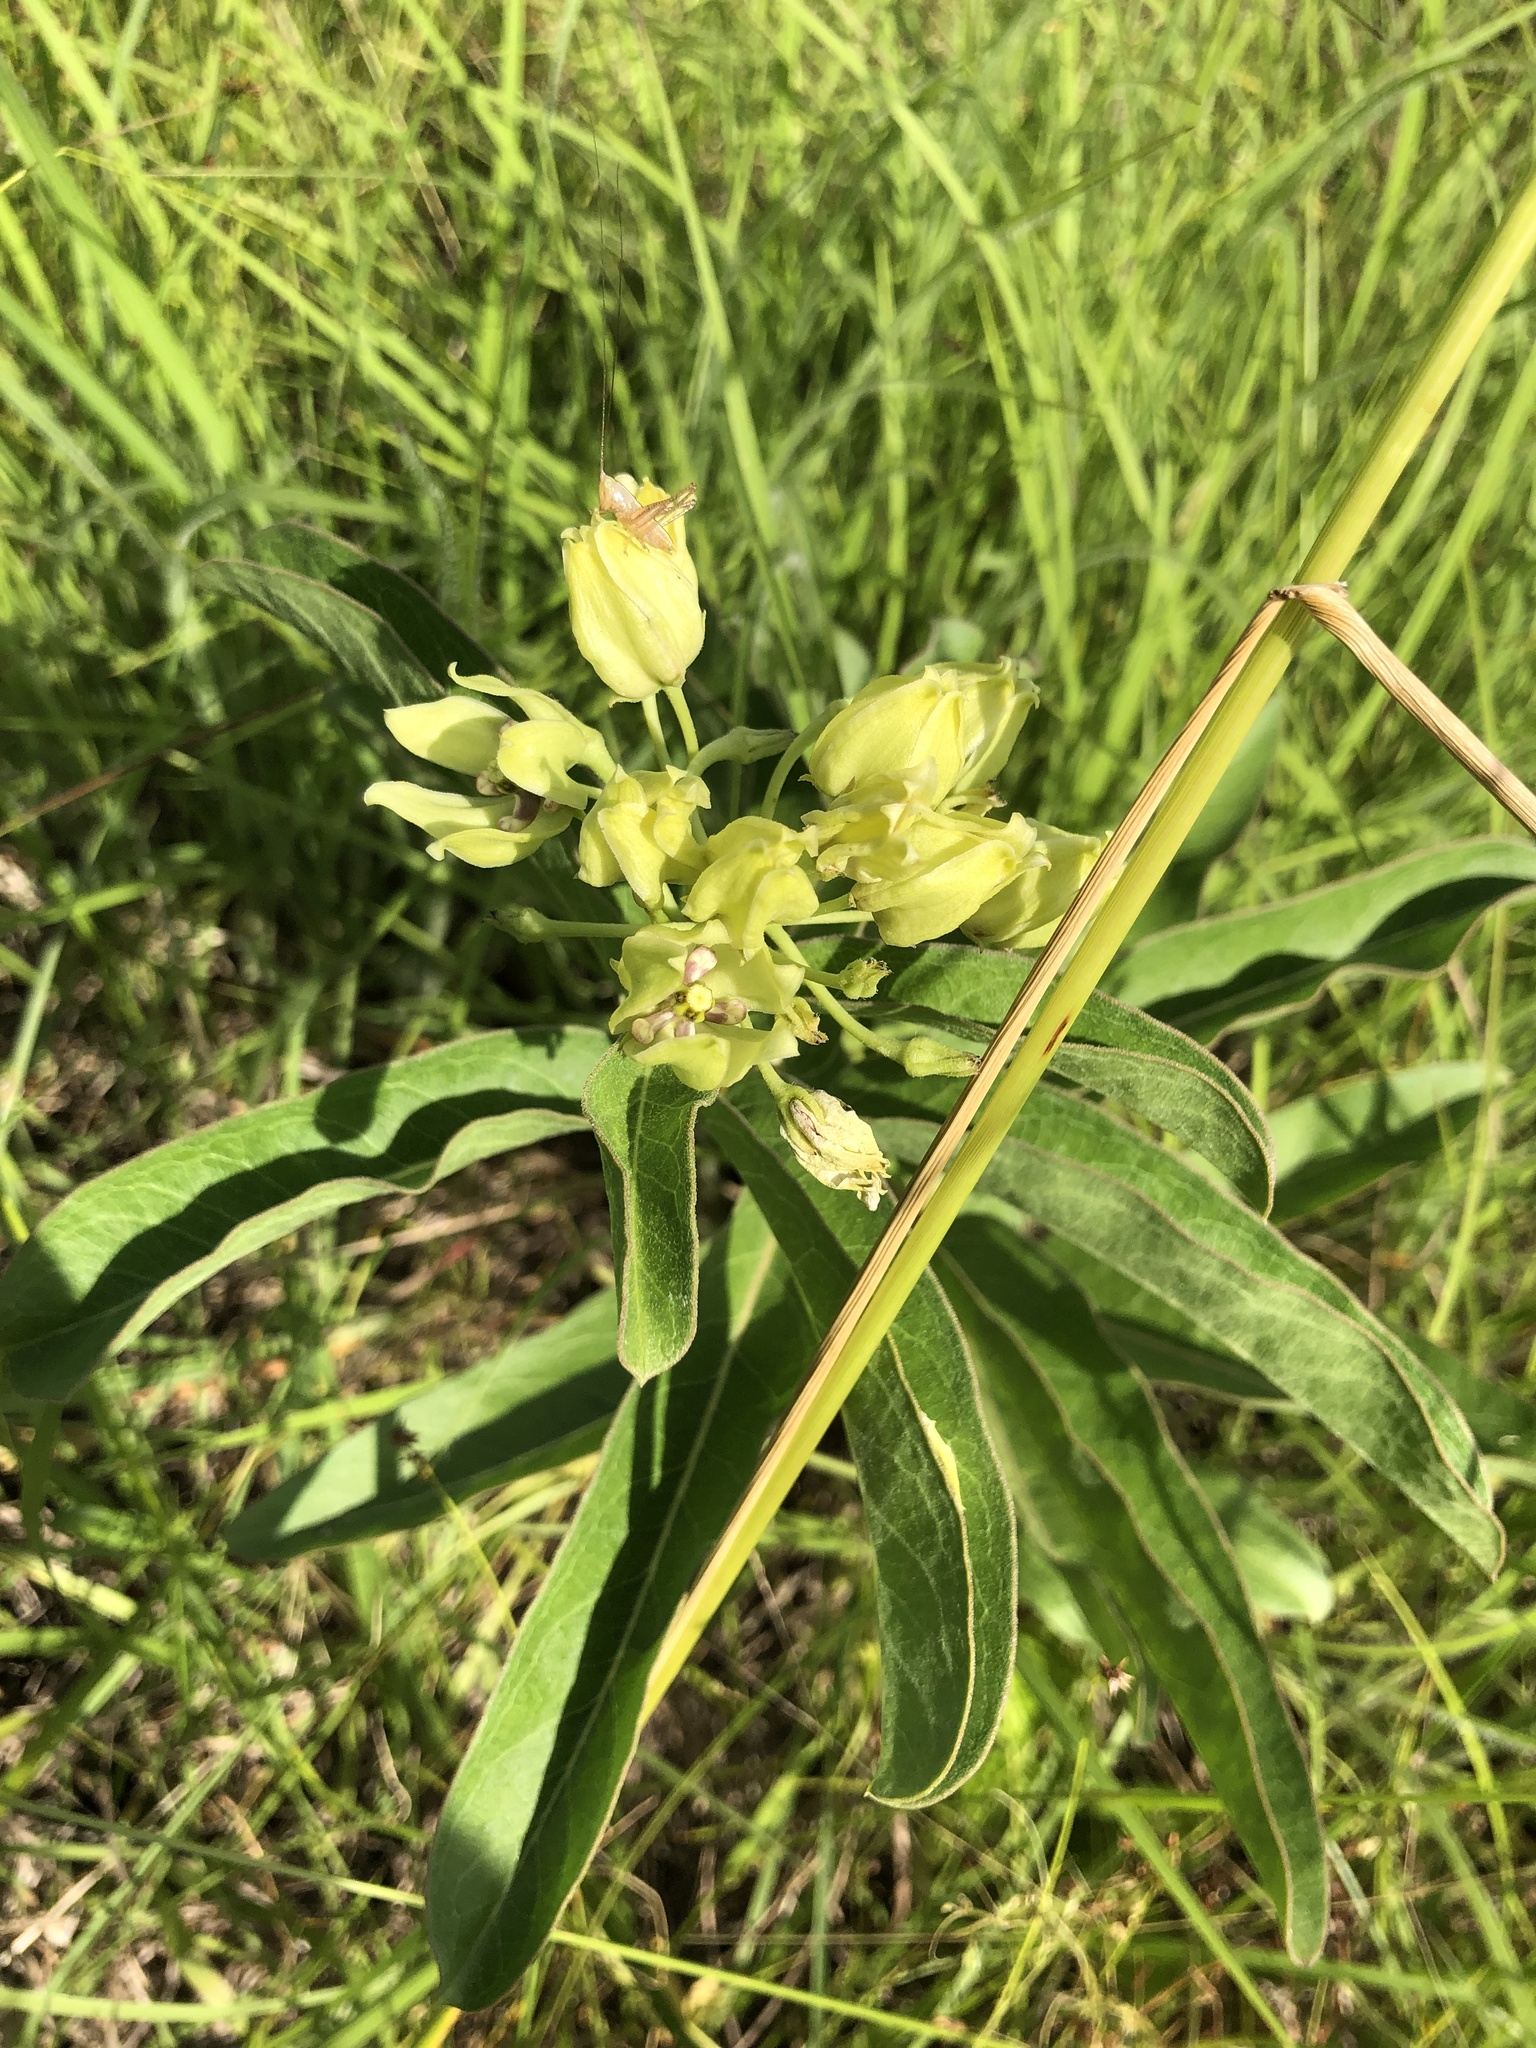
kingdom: Plantae
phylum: Tracheophyta
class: Magnoliopsida
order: Gentianales
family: Apocynaceae
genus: Asclepias
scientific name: Asclepias viridis
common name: Antelope-horns
